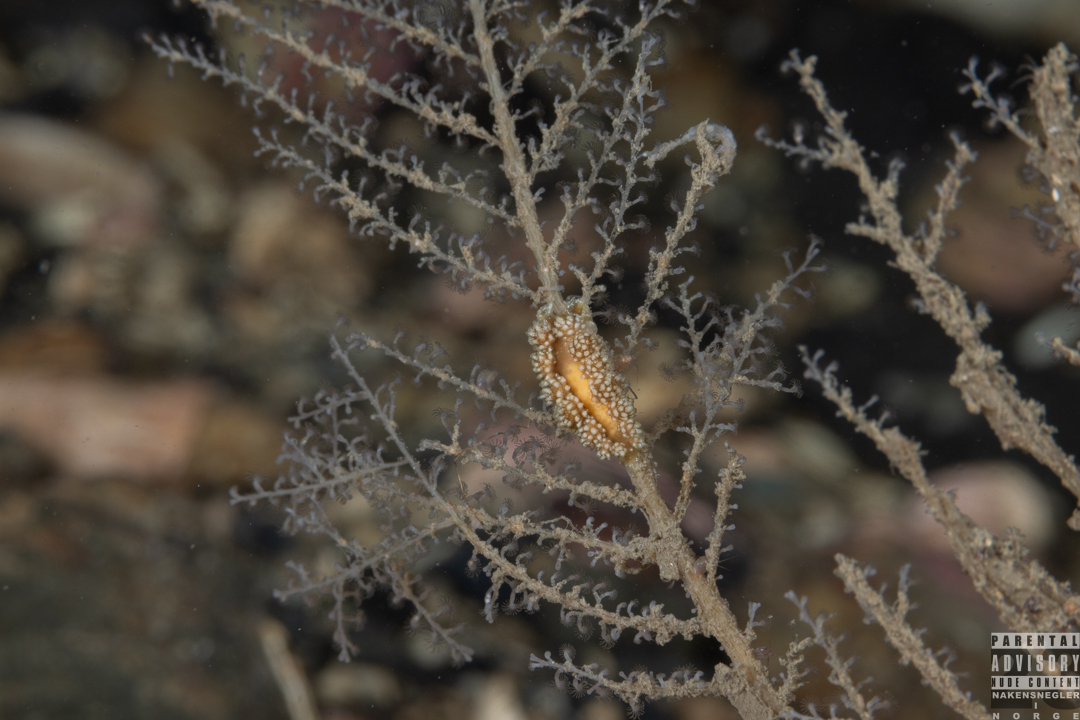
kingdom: Animalia
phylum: Mollusca
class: Gastropoda
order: Nudibranchia
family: Dotidae
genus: Doto
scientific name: Doto fragilis
